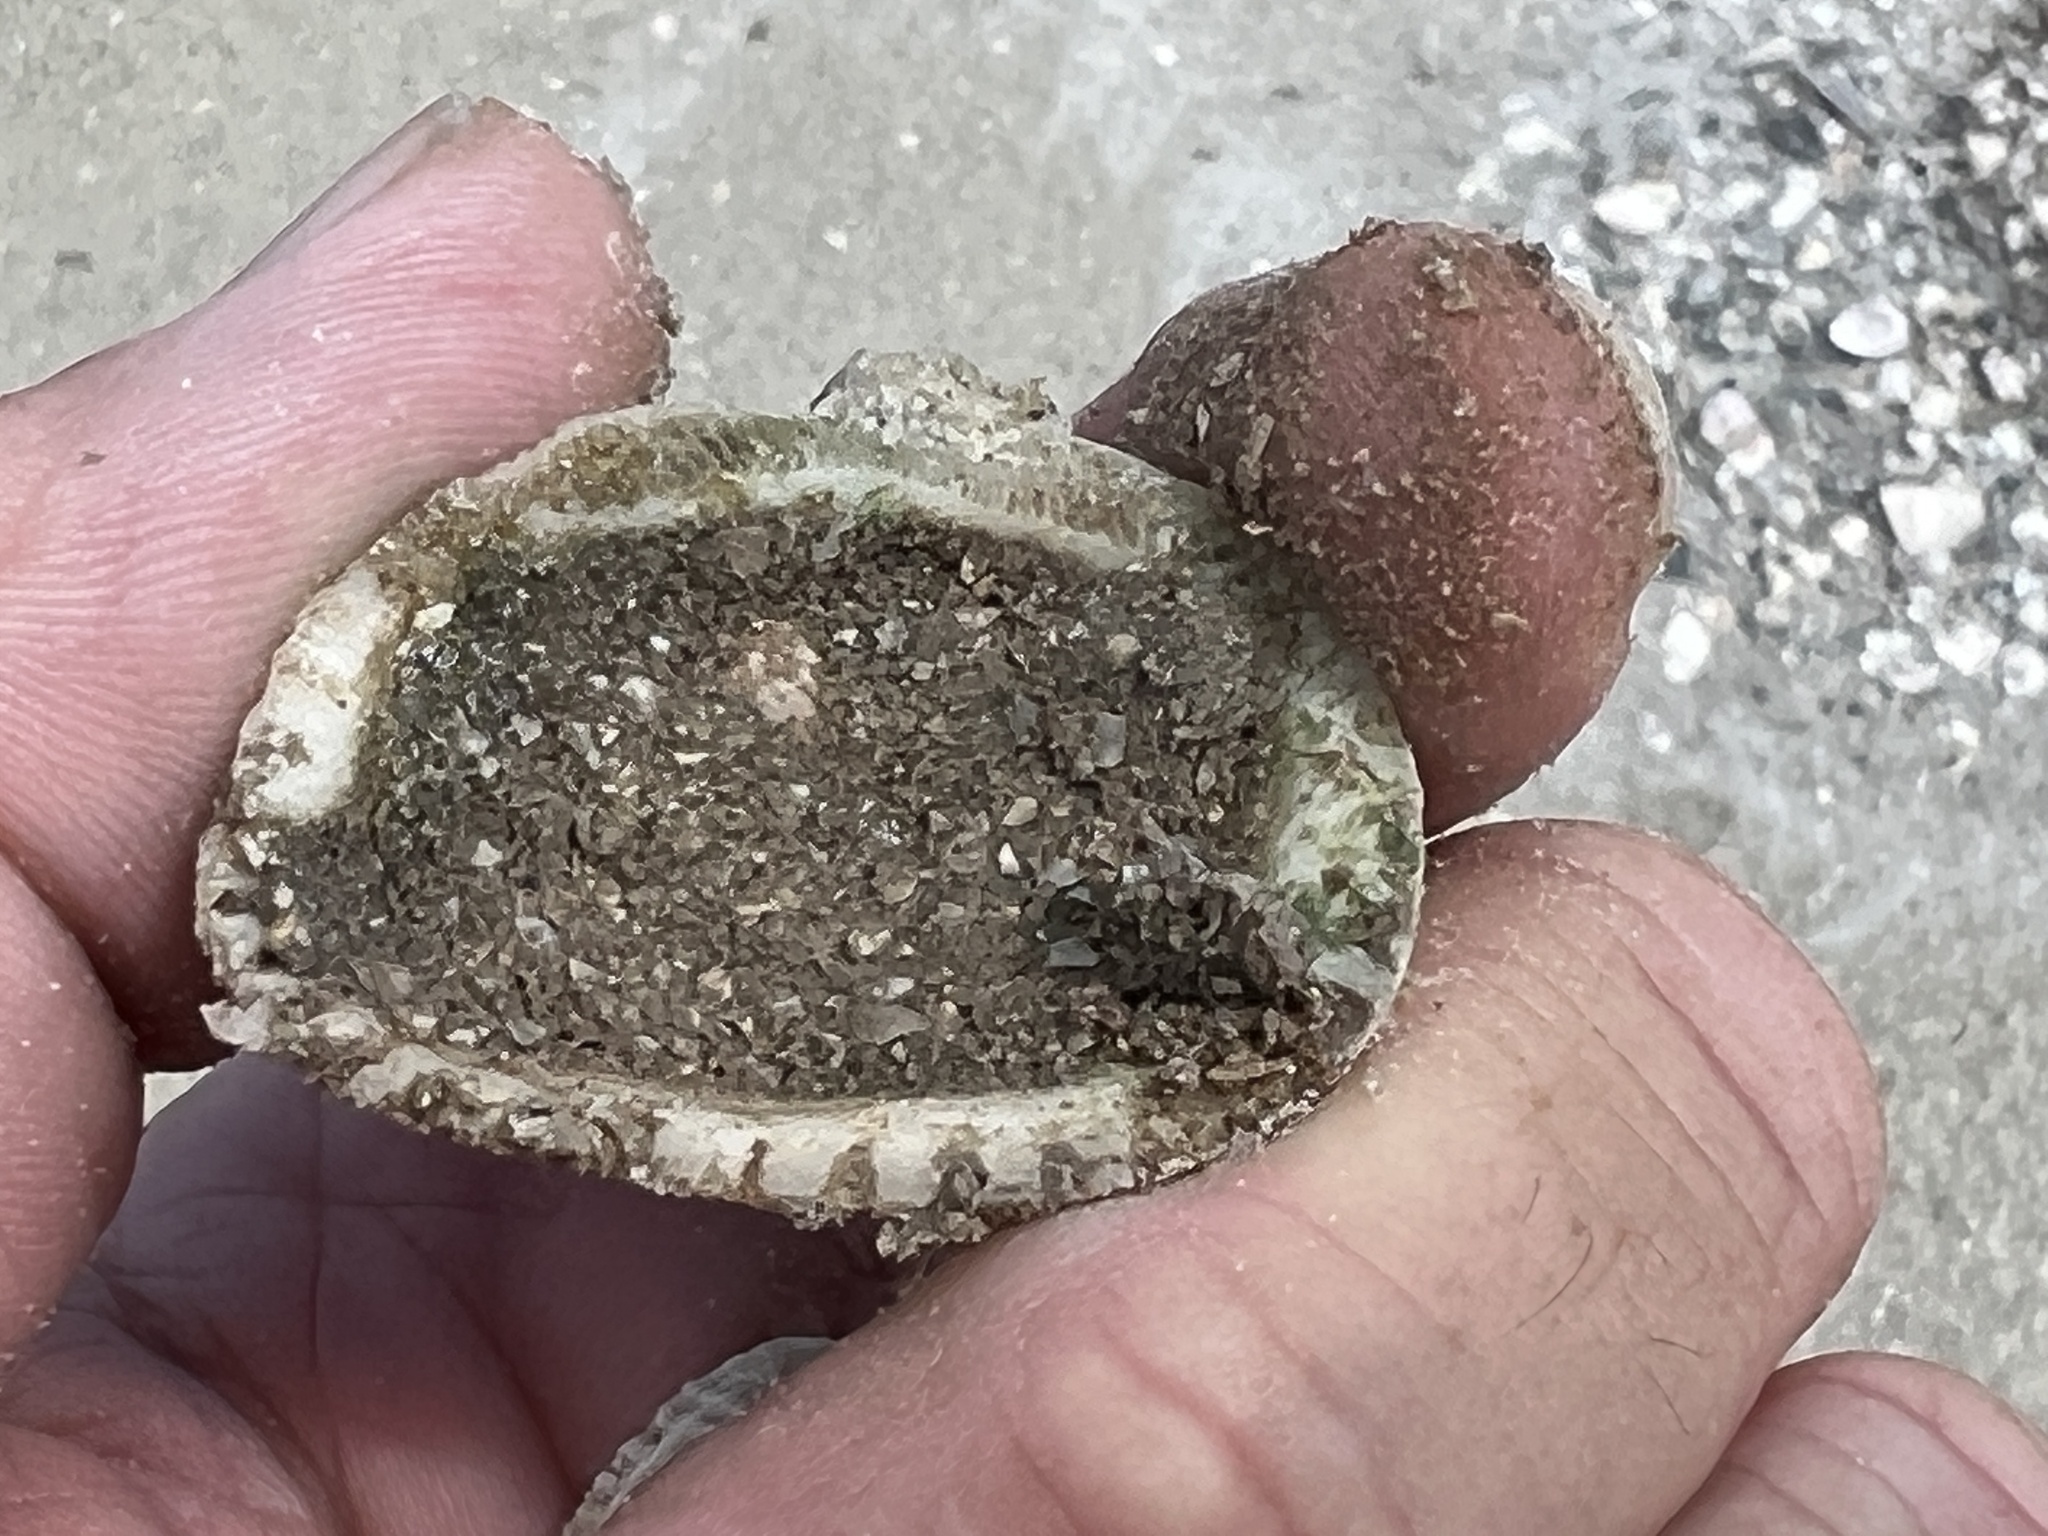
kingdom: Animalia
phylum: Mollusca
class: Bivalvia
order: Arcida
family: Noetiidae
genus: Noetia
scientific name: Noetia ponderosa
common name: Ponderous ark
